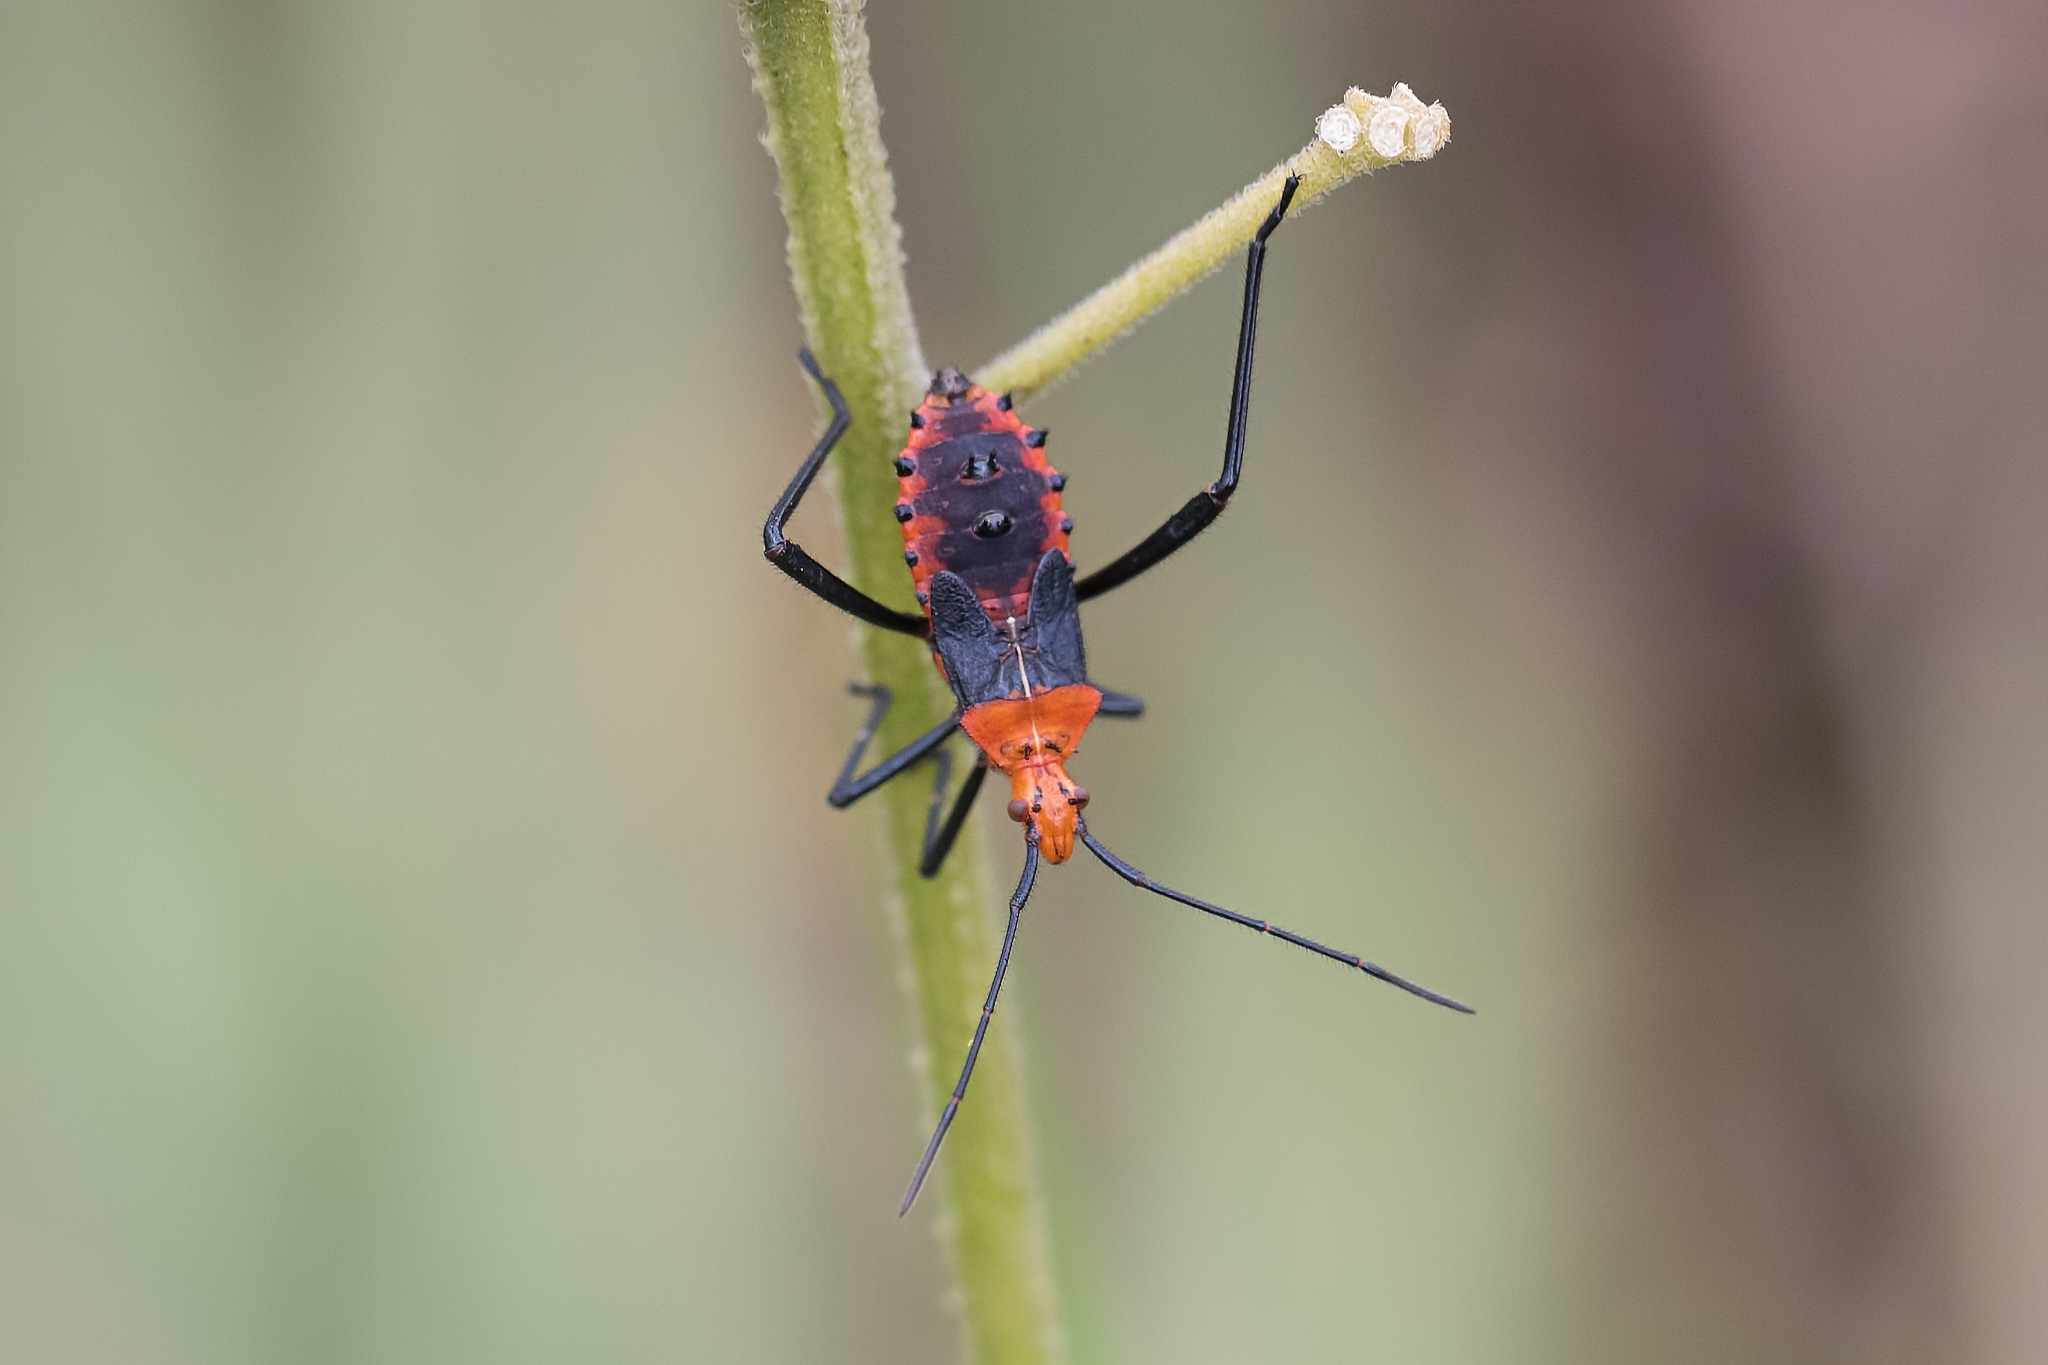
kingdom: Animalia
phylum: Arthropoda
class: Insecta
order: Hemiptera
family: Coreidae
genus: Phthiacnemia
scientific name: Phthiacnemia picta
